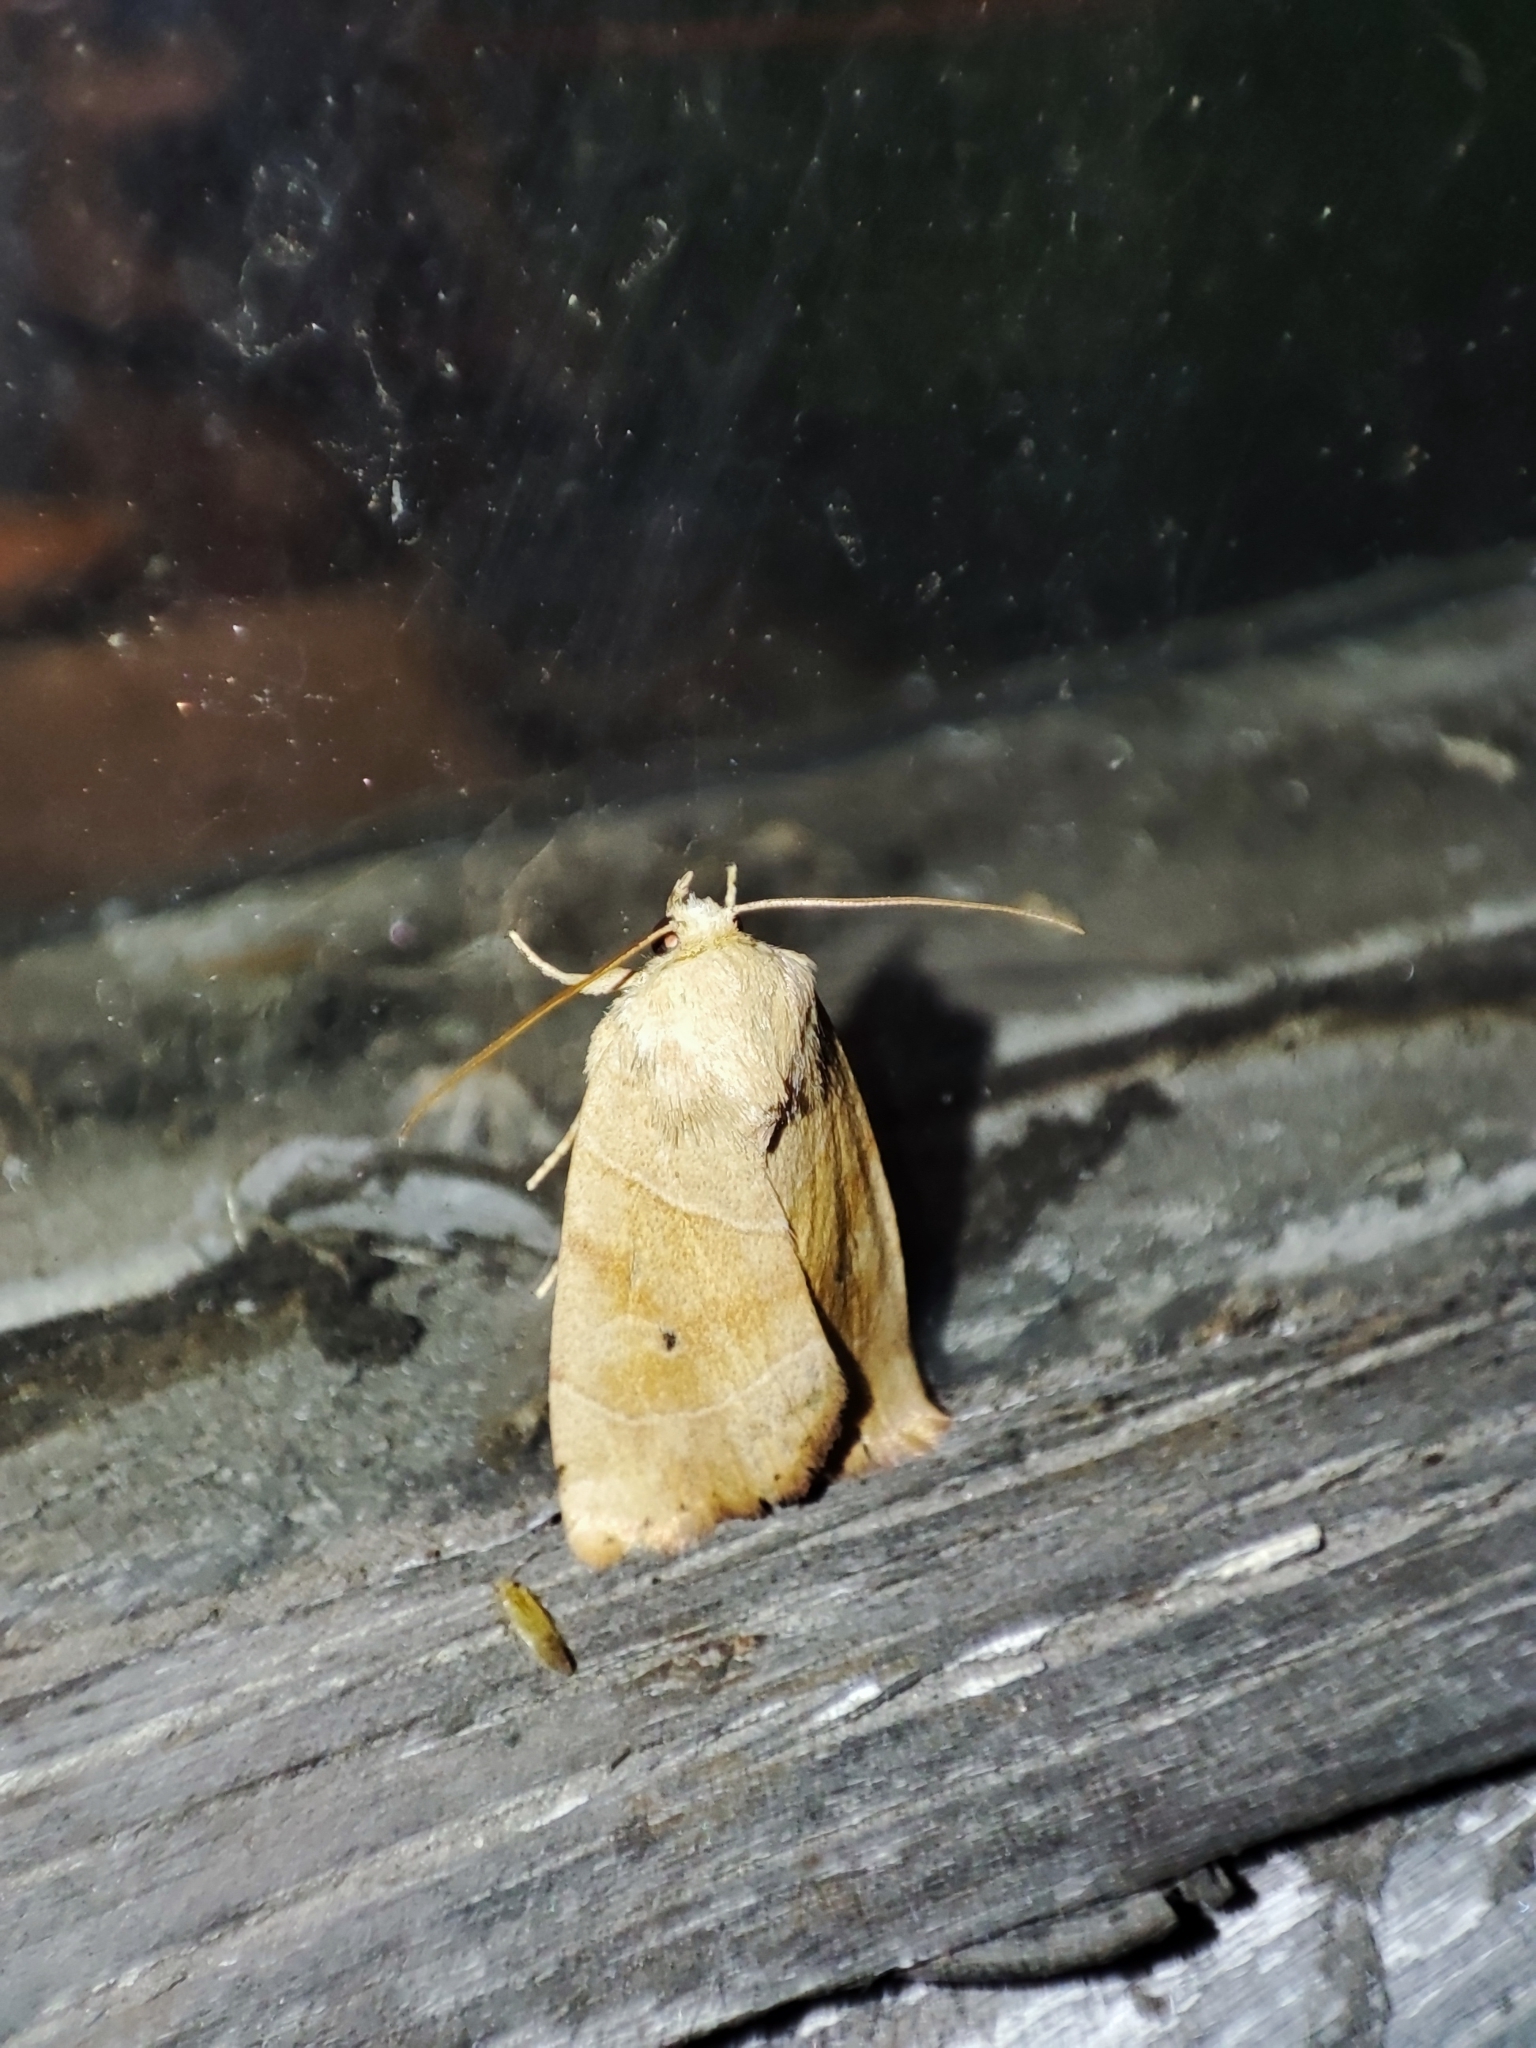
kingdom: Animalia
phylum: Arthropoda
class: Insecta
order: Lepidoptera
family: Noctuidae
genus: Cosmia
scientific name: Cosmia trapezina
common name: Dun-bar
